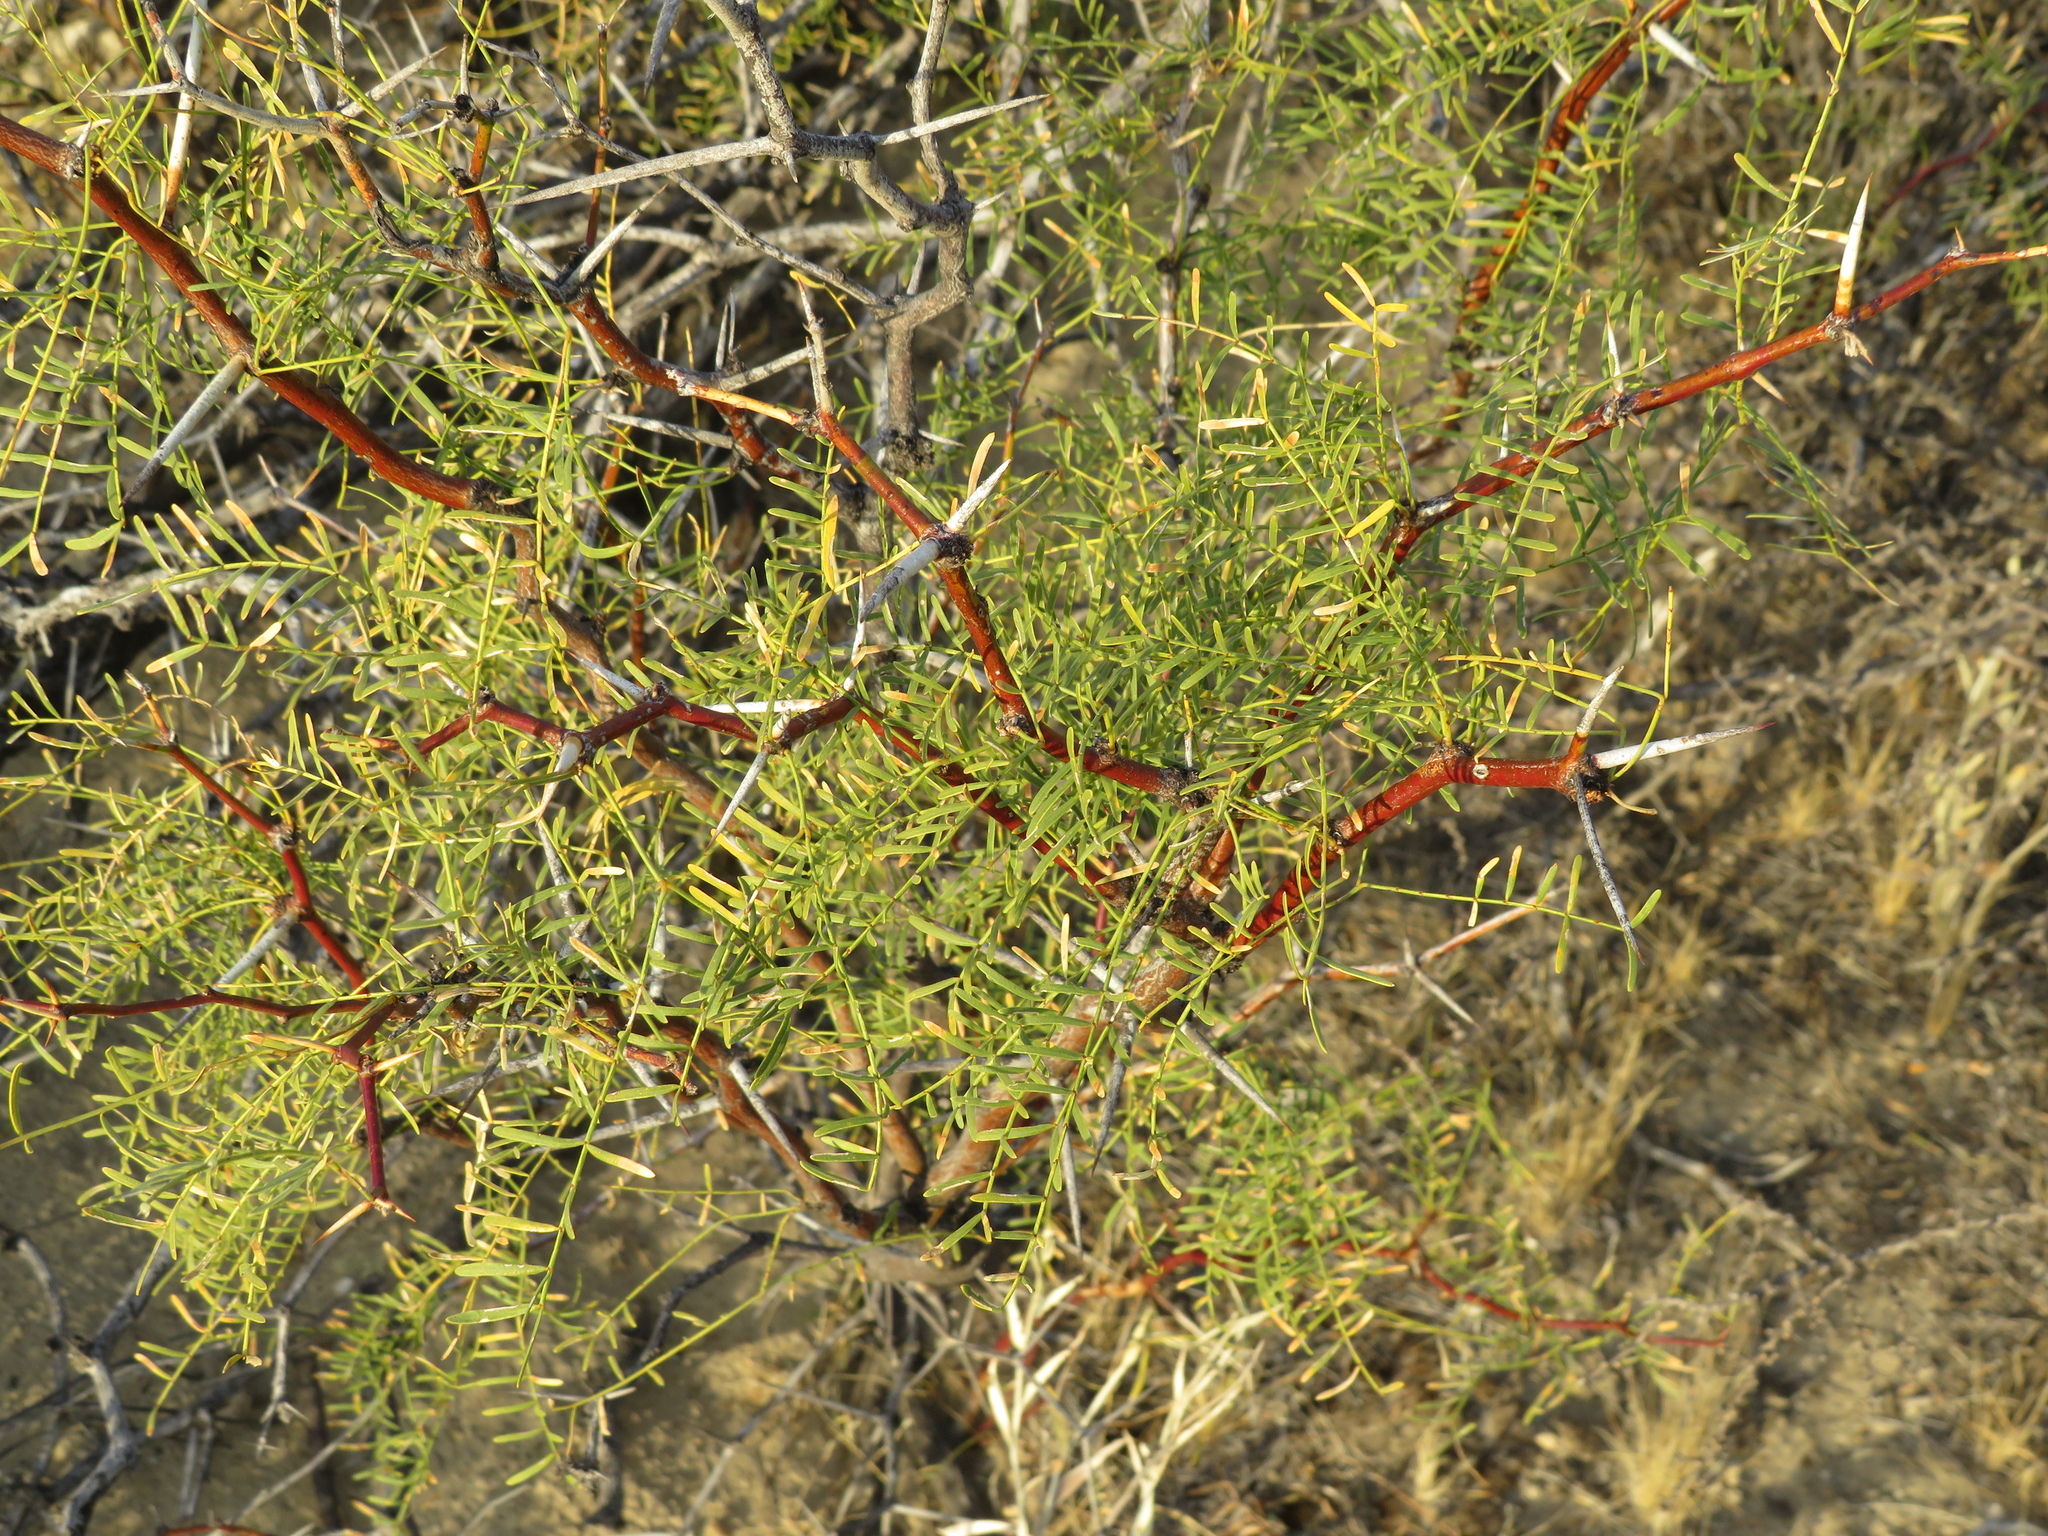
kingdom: Plantae
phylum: Tracheophyta
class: Magnoliopsida
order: Fabales
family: Fabaceae
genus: Prosopis
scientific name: Prosopis alpataco
